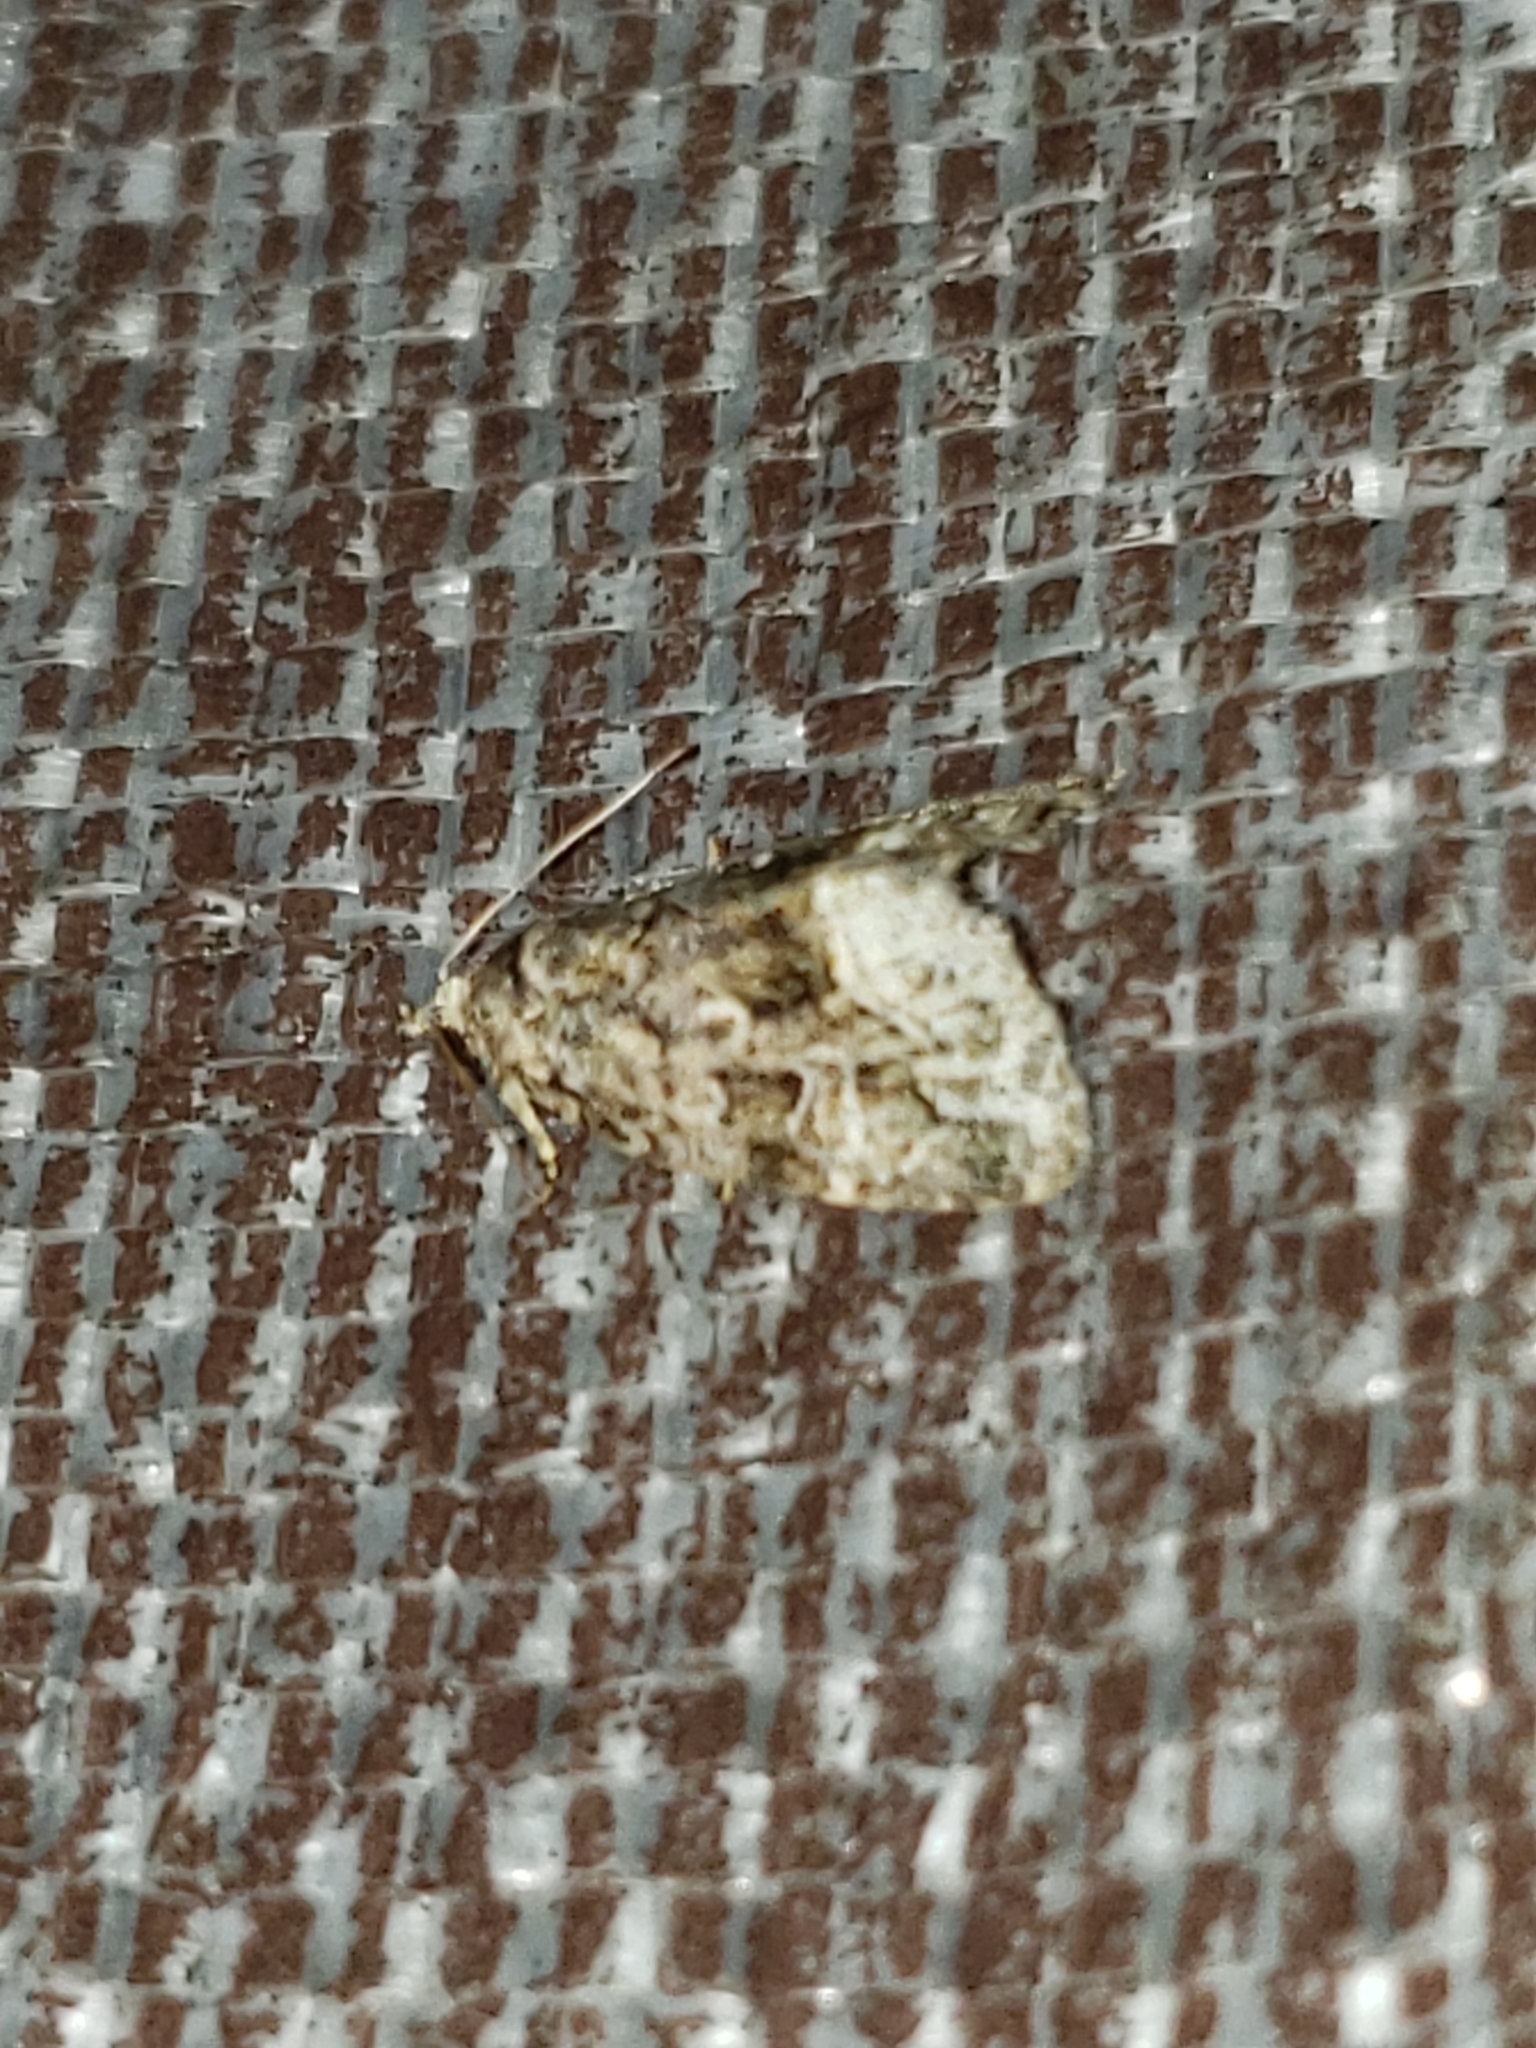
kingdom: Animalia
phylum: Arthropoda
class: Insecta
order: Lepidoptera
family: Noctuidae
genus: Protodeltote
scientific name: Protodeltote muscosula
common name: Large mossy glyph
